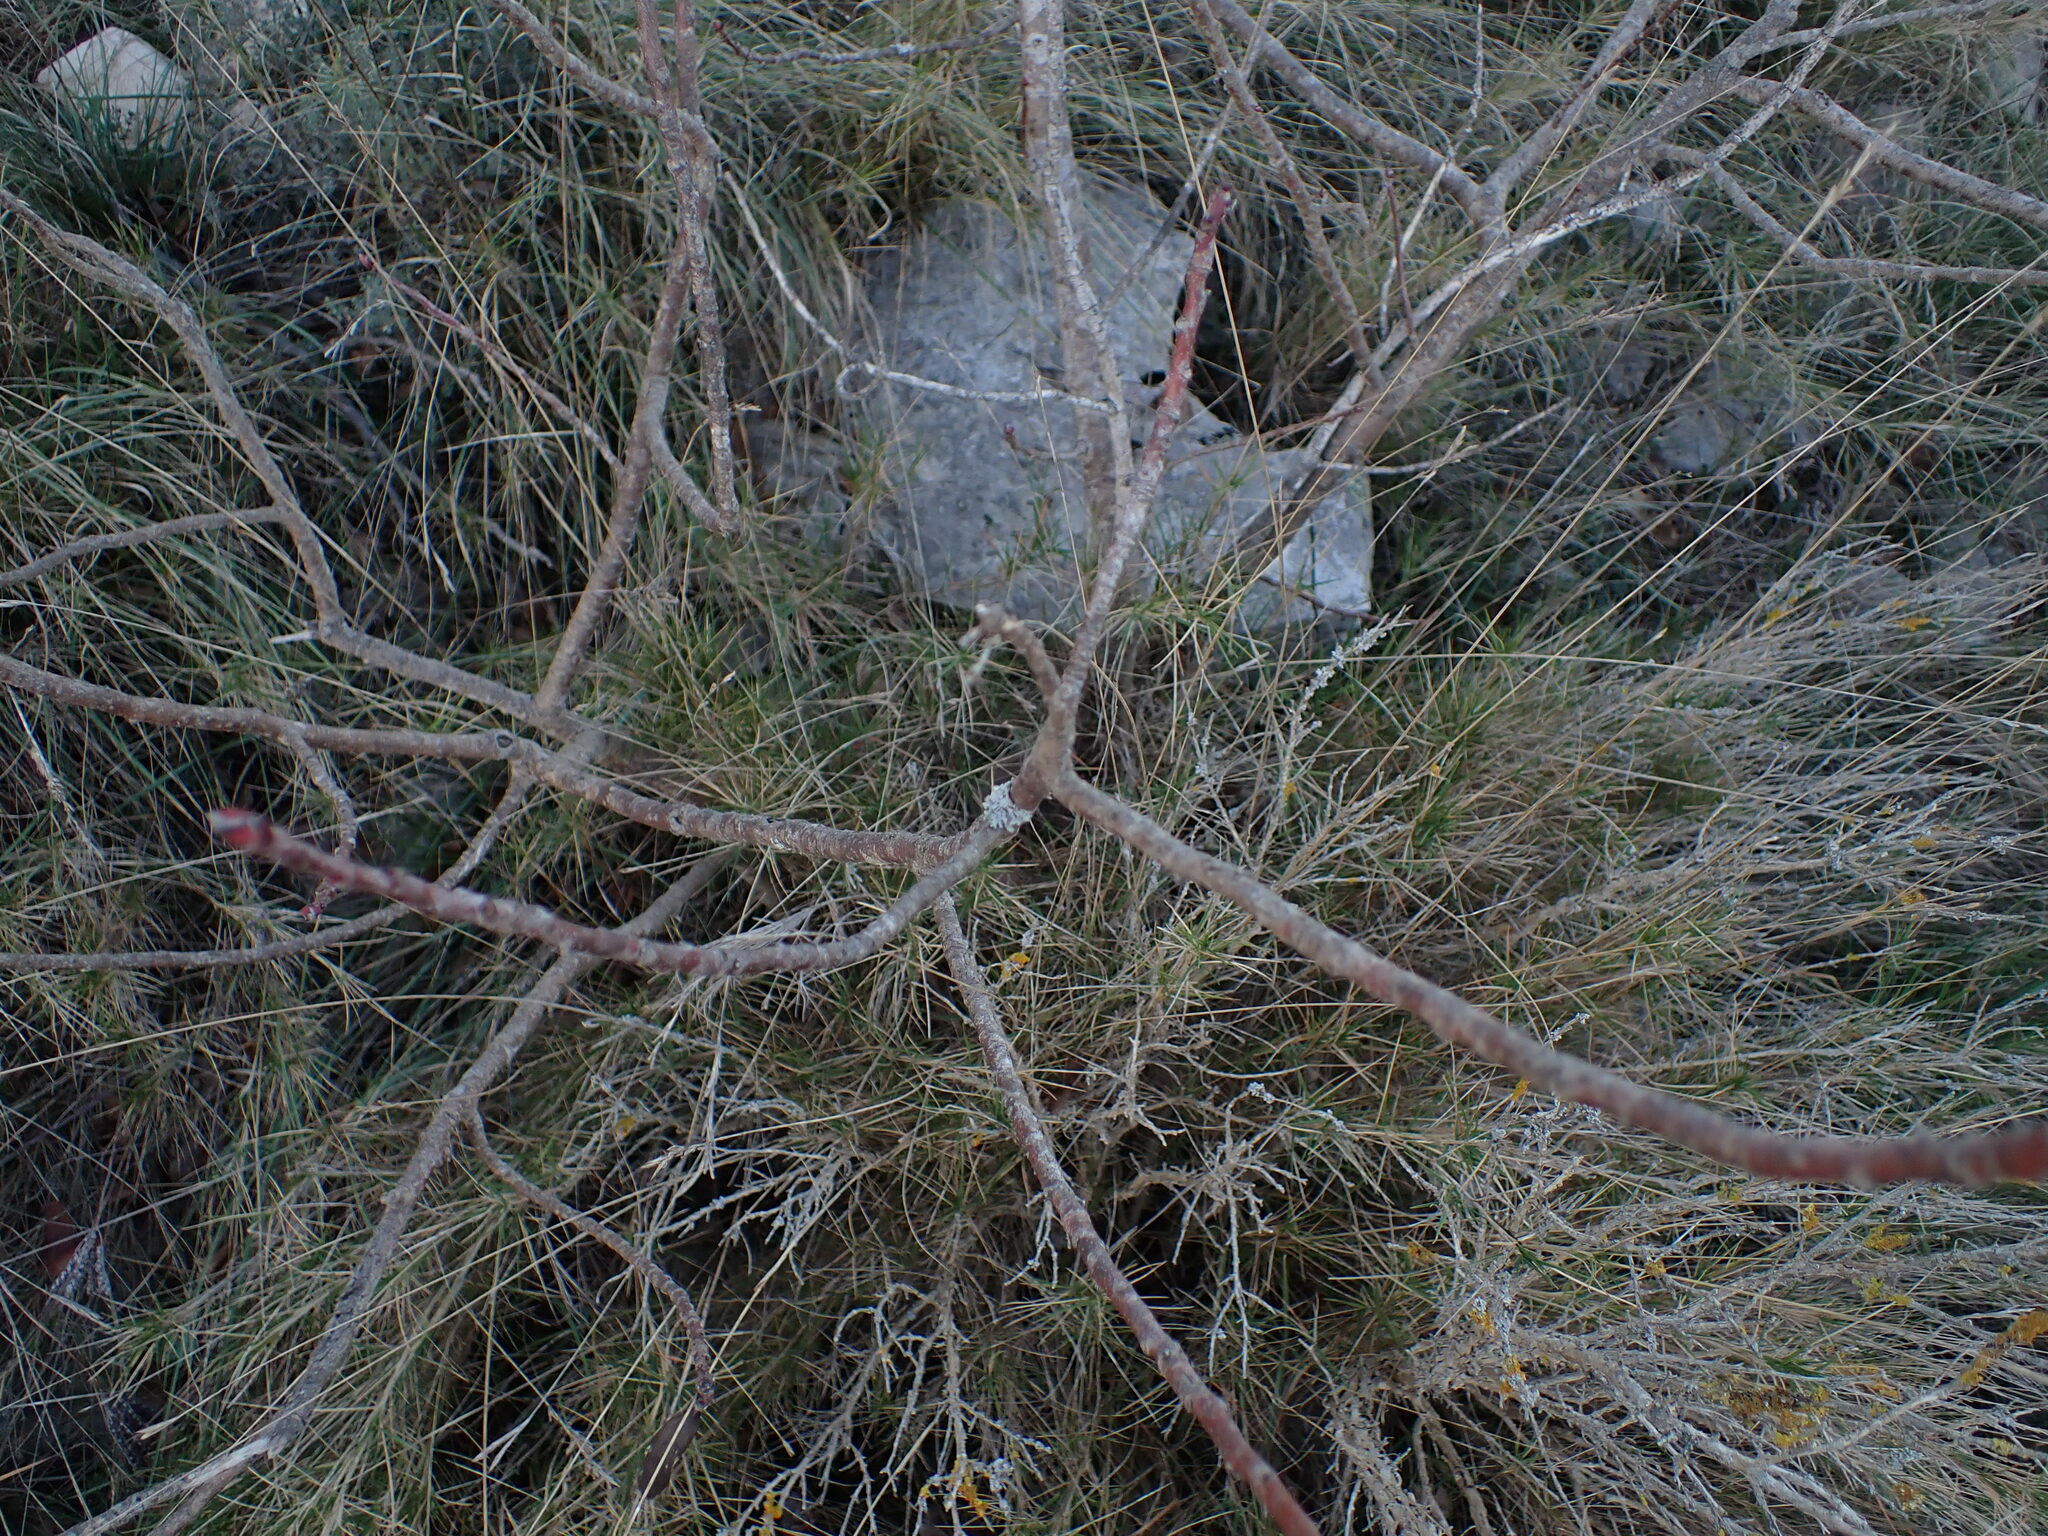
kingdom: Plantae
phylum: Tracheophyta
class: Magnoliopsida
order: Sapindales
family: Anacardiaceae
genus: Pistacia
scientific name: Pistacia terebinthus
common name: Terebinth
